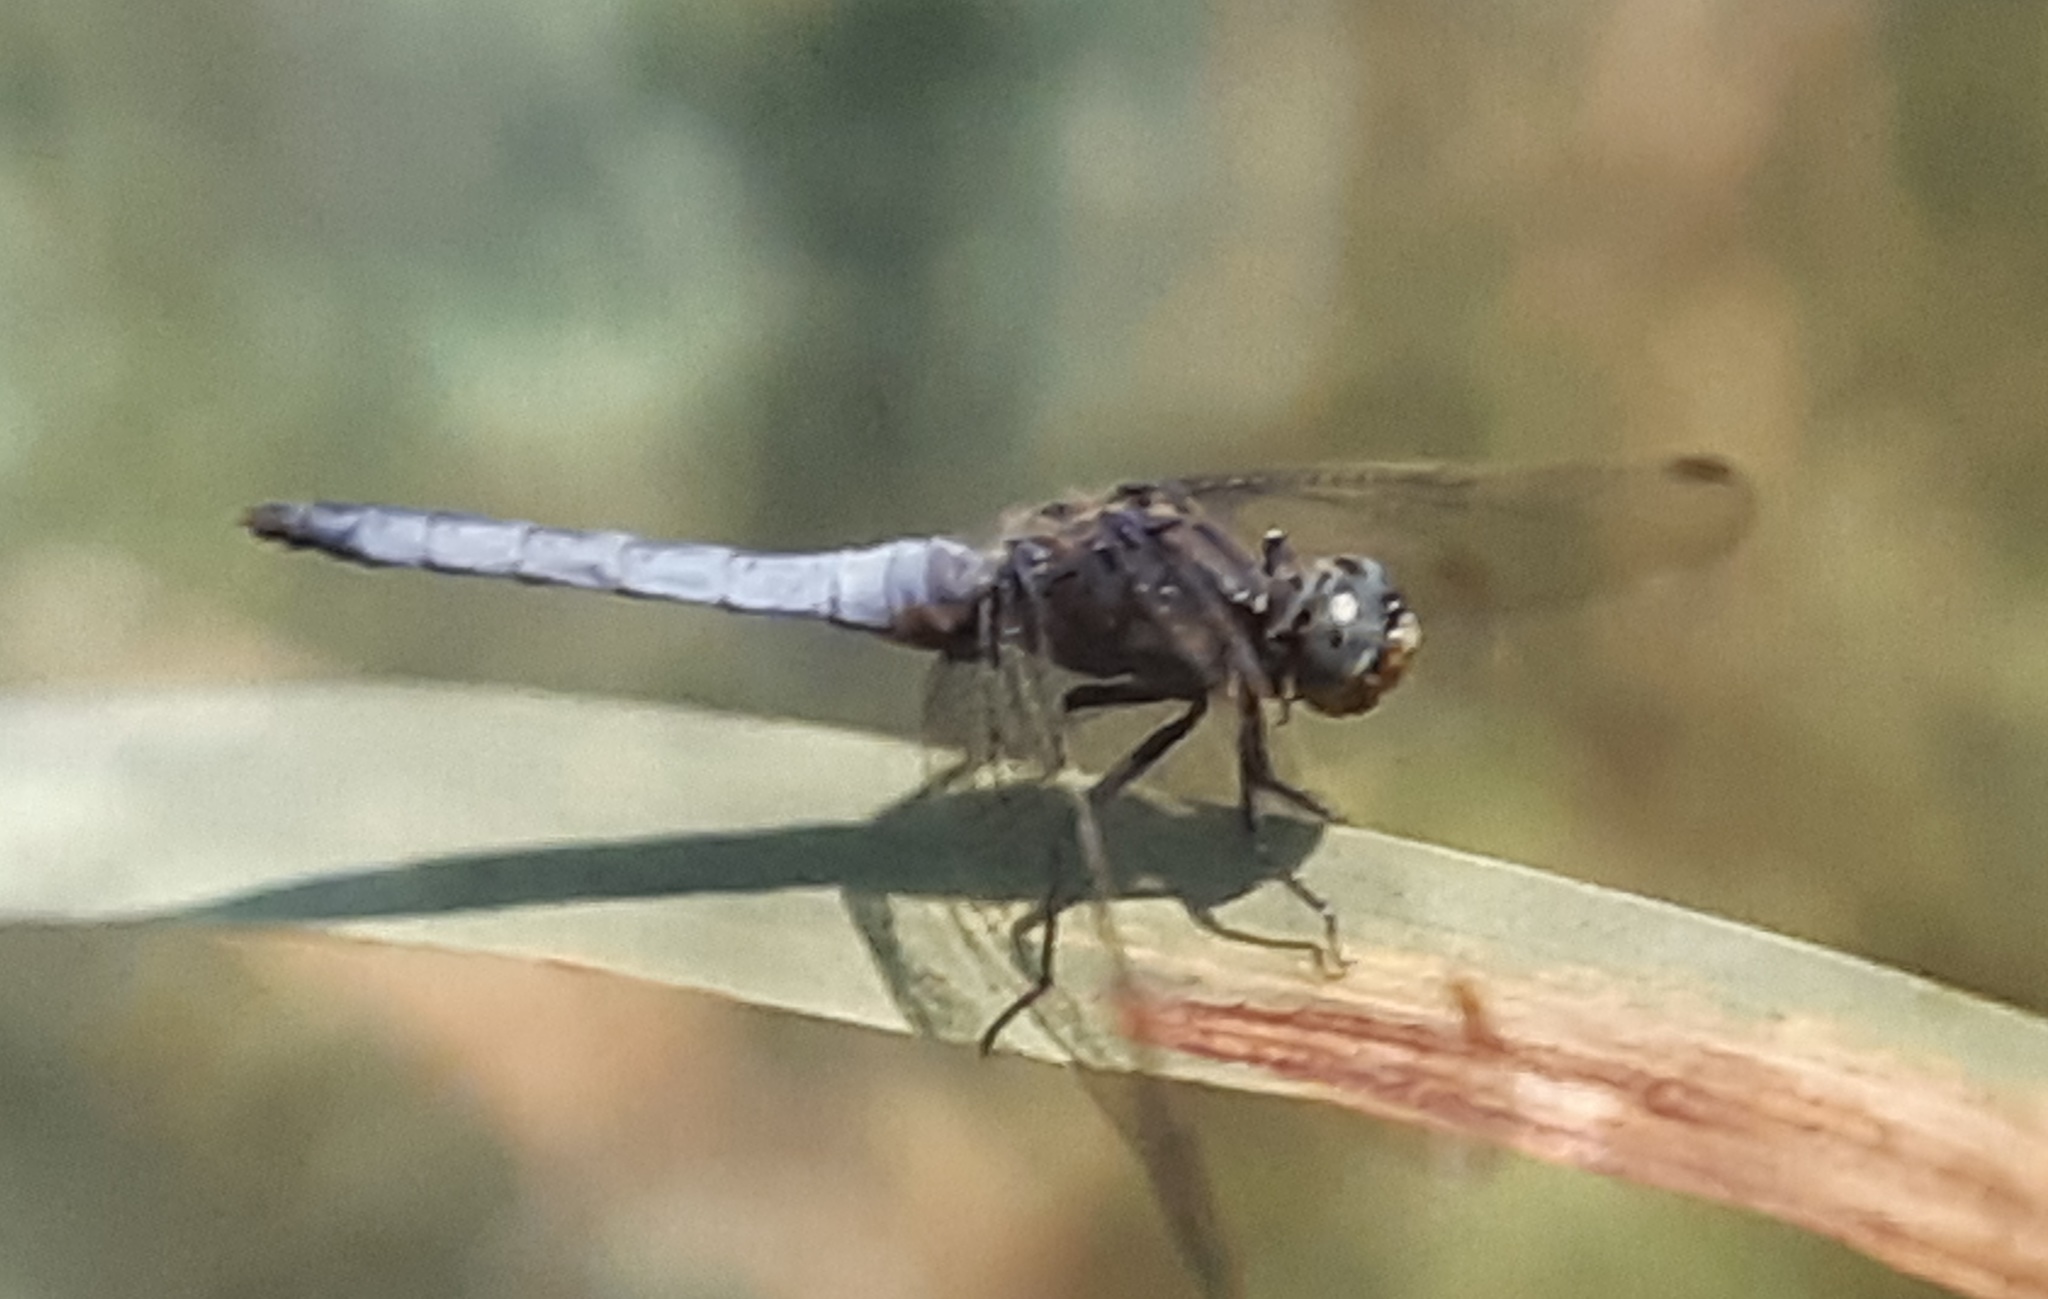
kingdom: Animalia
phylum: Arthropoda
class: Insecta
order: Odonata
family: Libellulidae
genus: Orthetrum
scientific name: Orthetrum coerulescens
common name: Keeled skimmer
